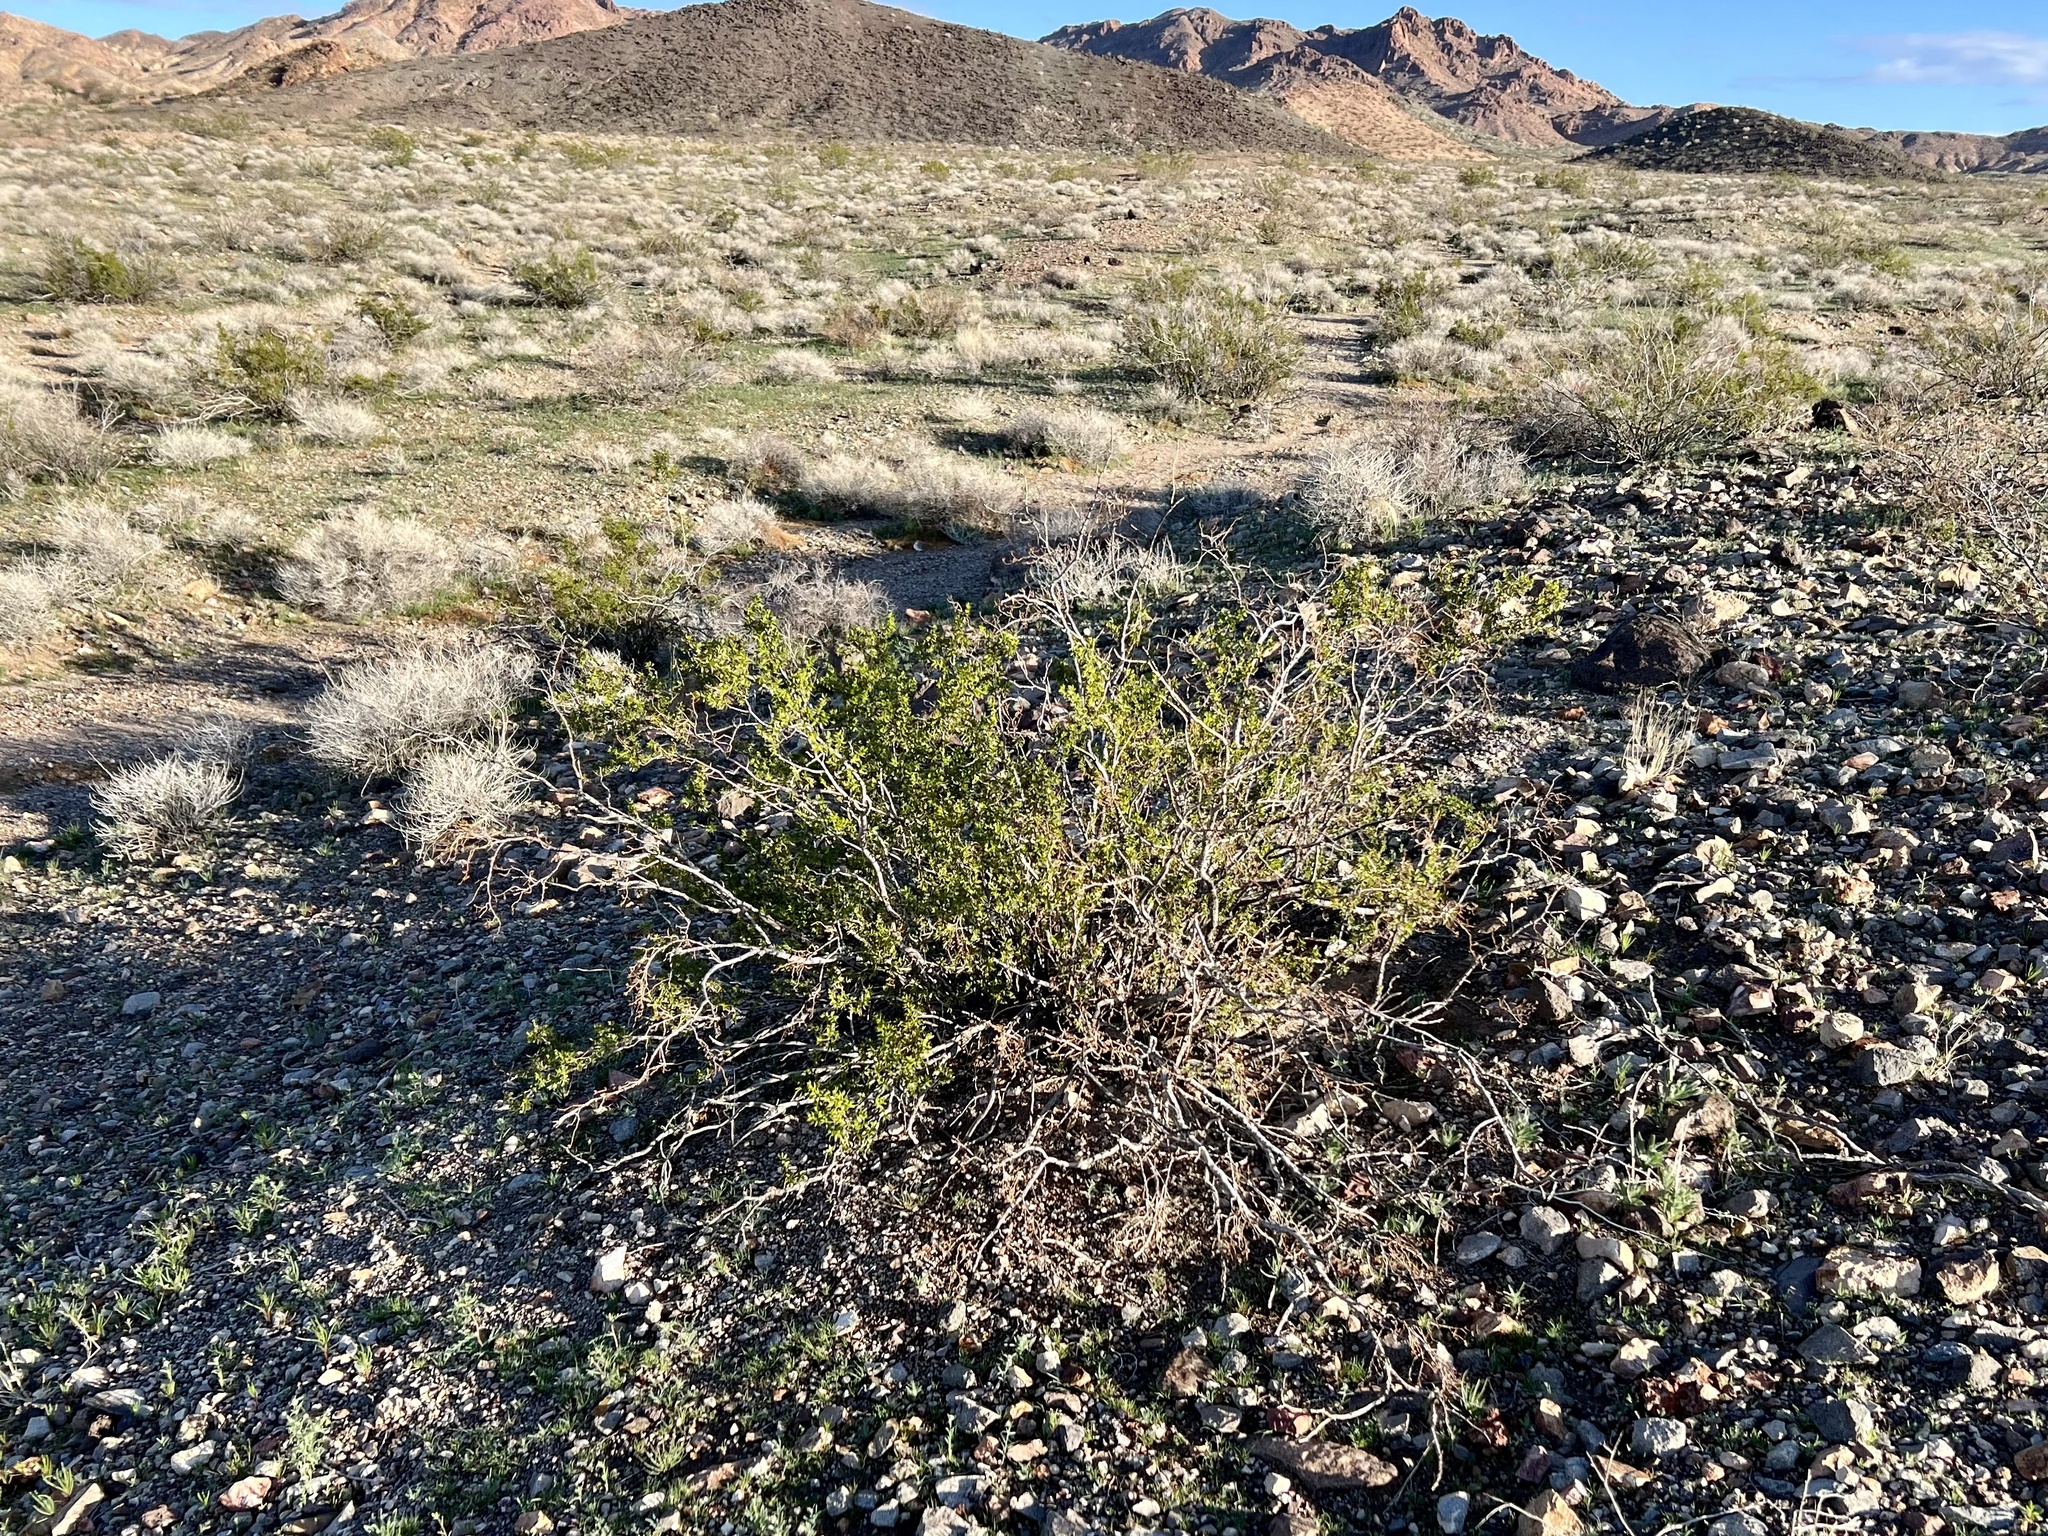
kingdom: Plantae
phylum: Tracheophyta
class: Magnoliopsida
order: Zygophyllales
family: Zygophyllaceae
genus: Larrea
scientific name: Larrea tridentata
